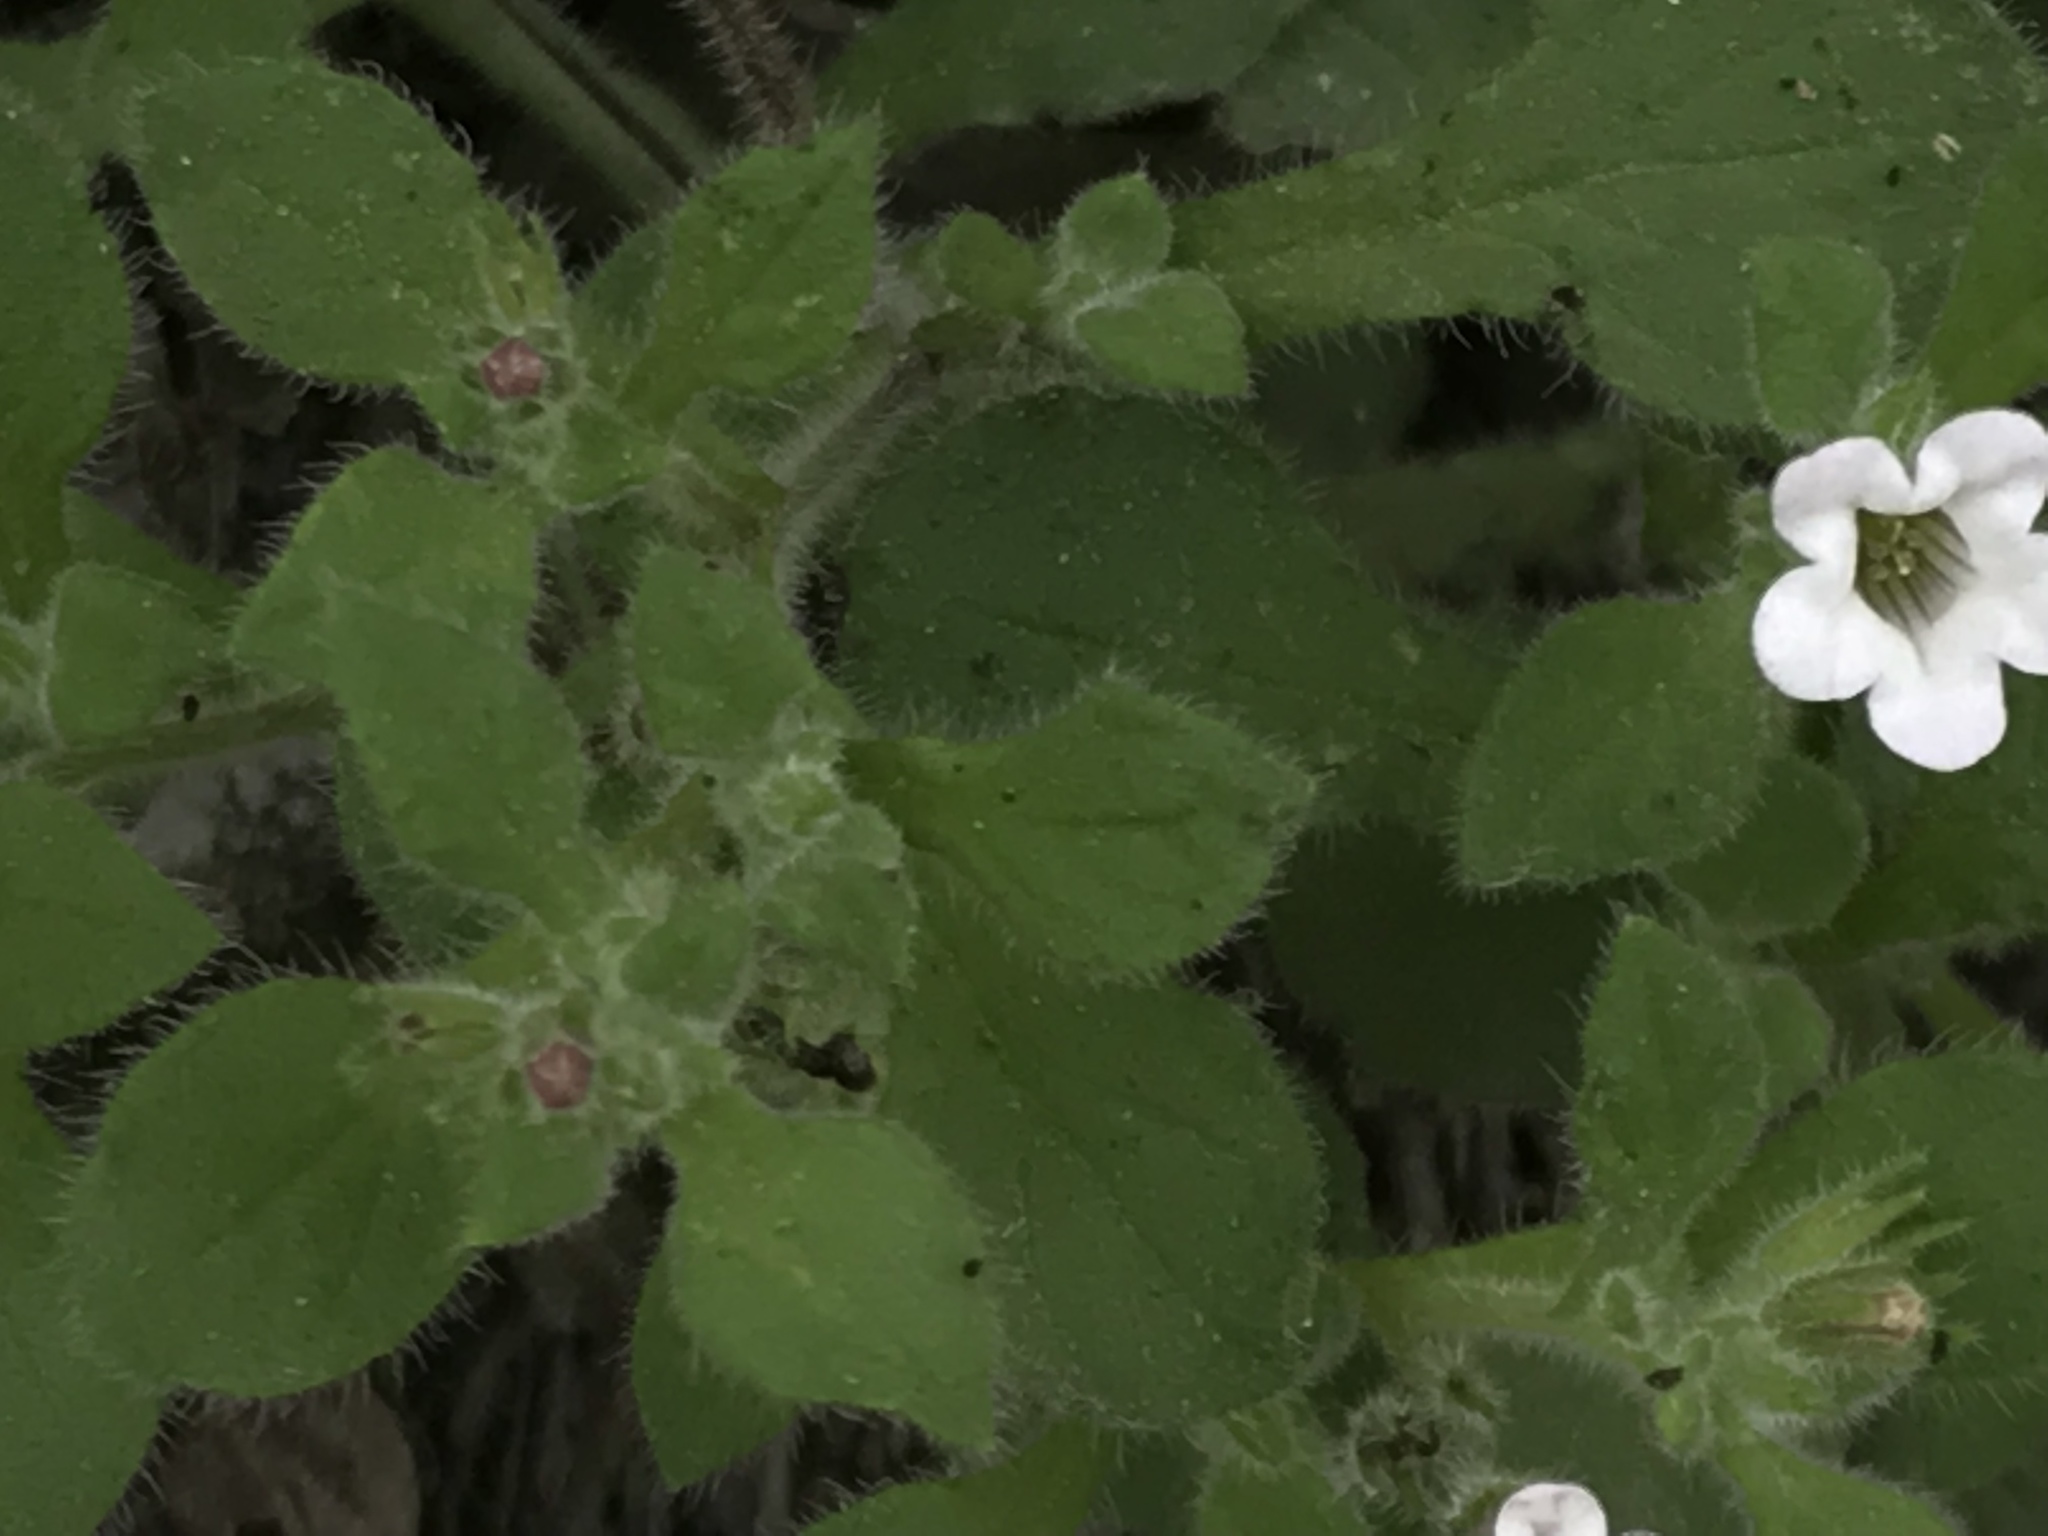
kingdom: Plantae
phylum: Tracheophyta
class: Magnoliopsida
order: Boraginales
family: Namaceae
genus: Nama
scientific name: Nama jamaicensis
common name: Jamaicanweed
